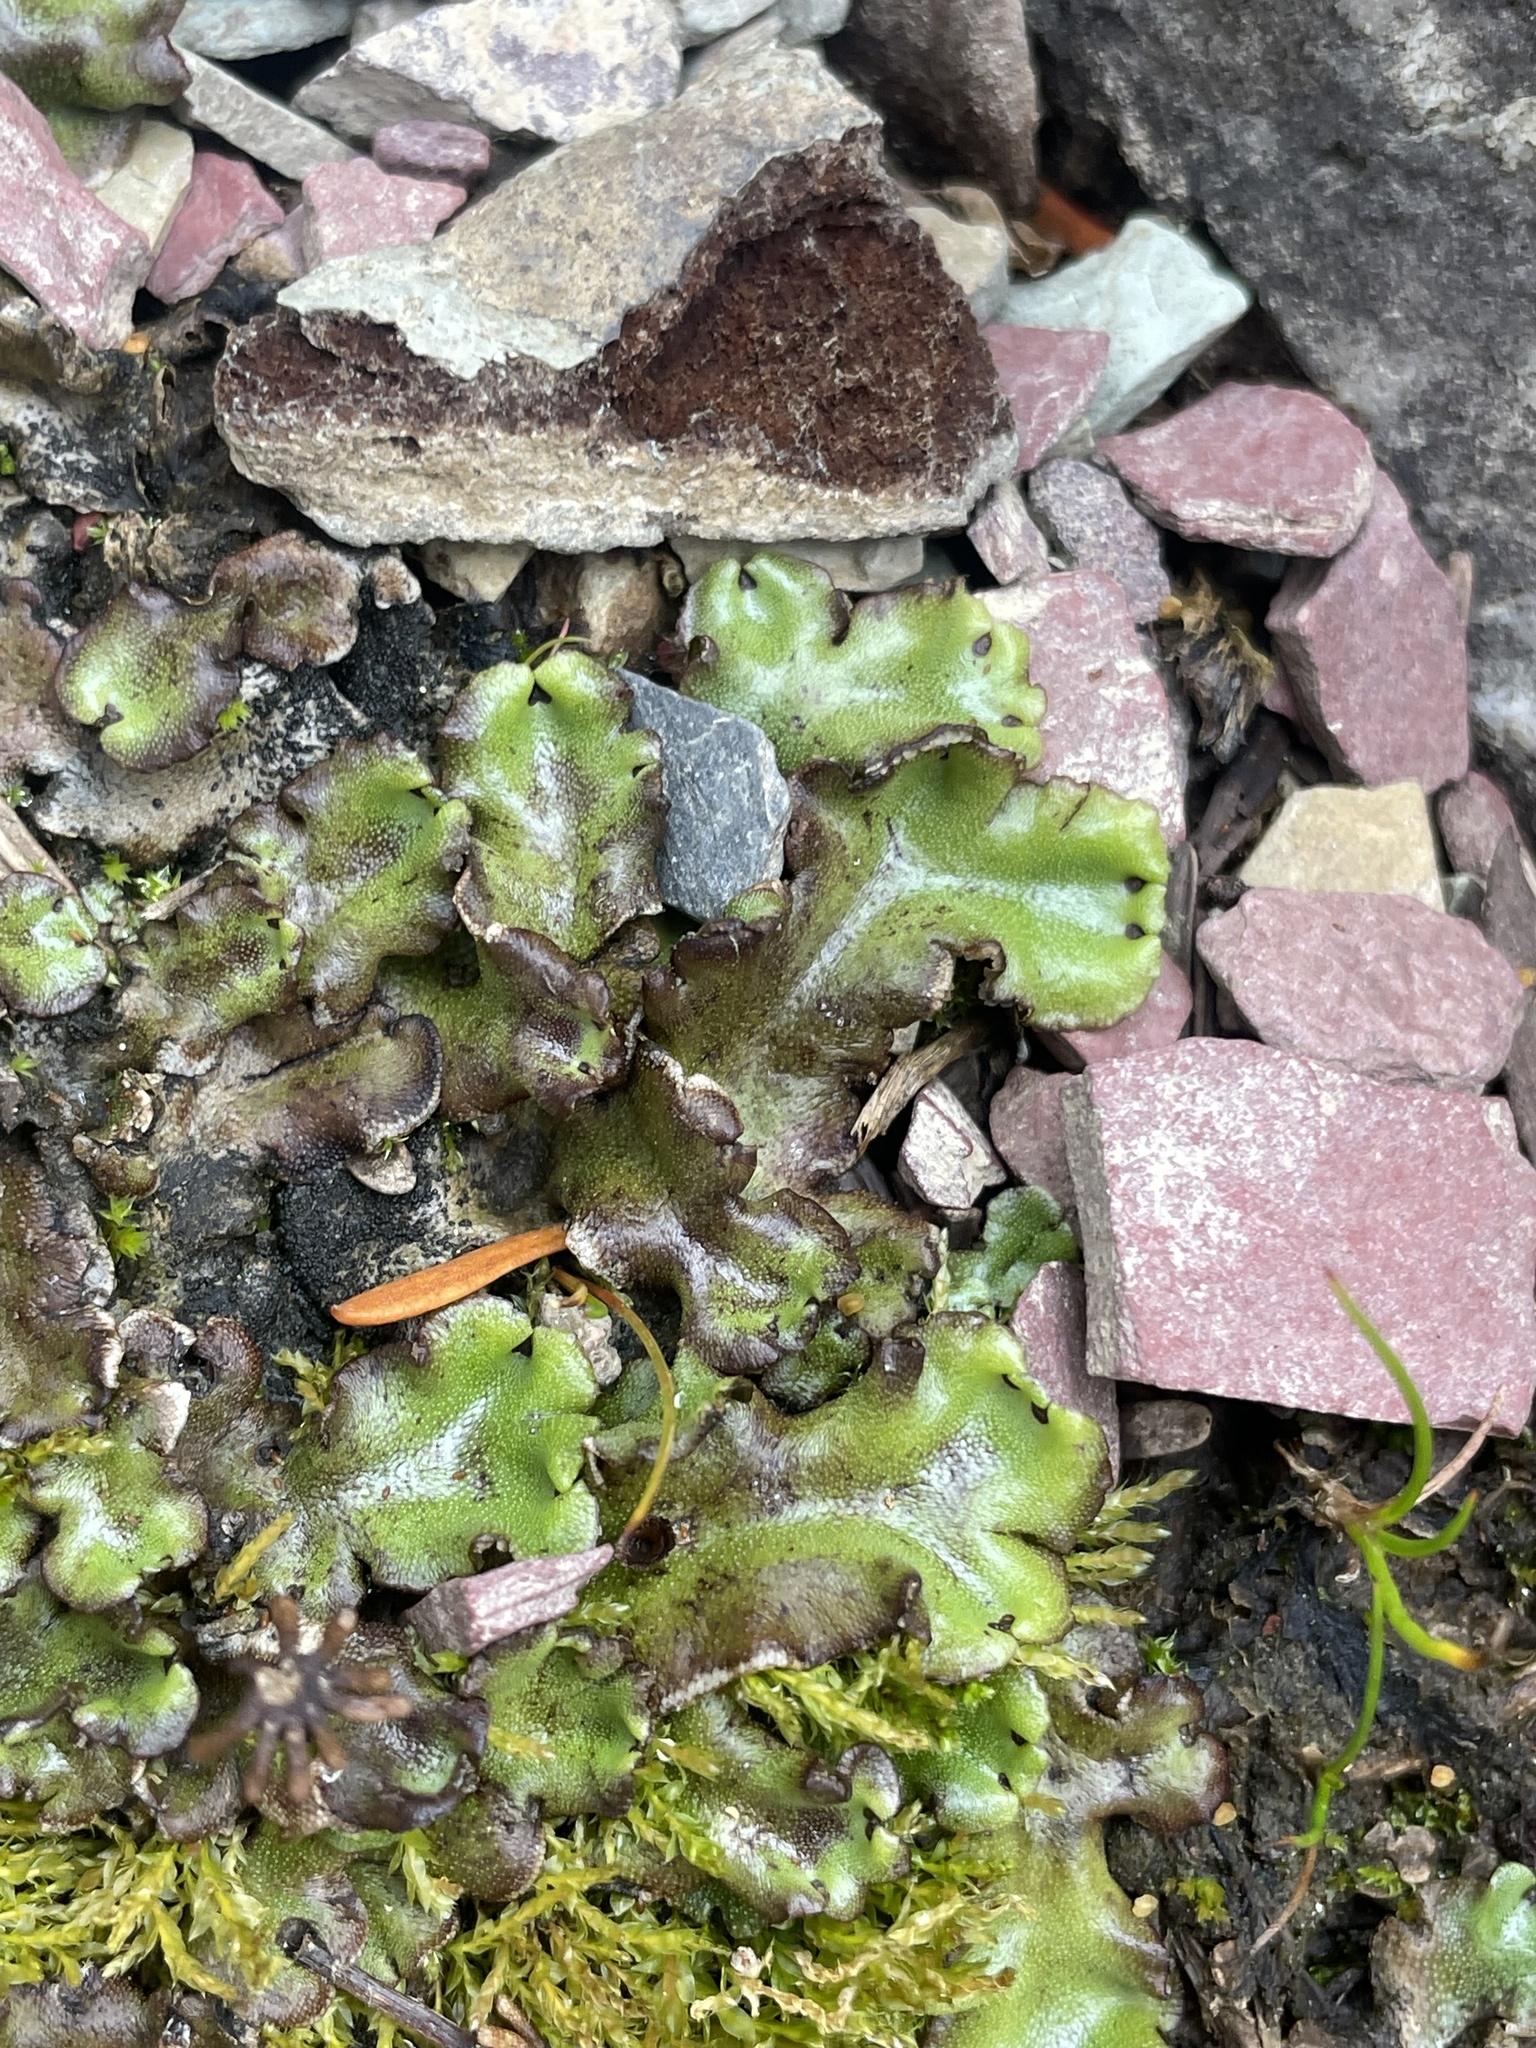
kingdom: Plantae
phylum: Marchantiophyta
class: Marchantiopsida
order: Marchantiales
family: Marchantiaceae
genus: Marchantia
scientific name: Marchantia polymorpha
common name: Common liverwort
